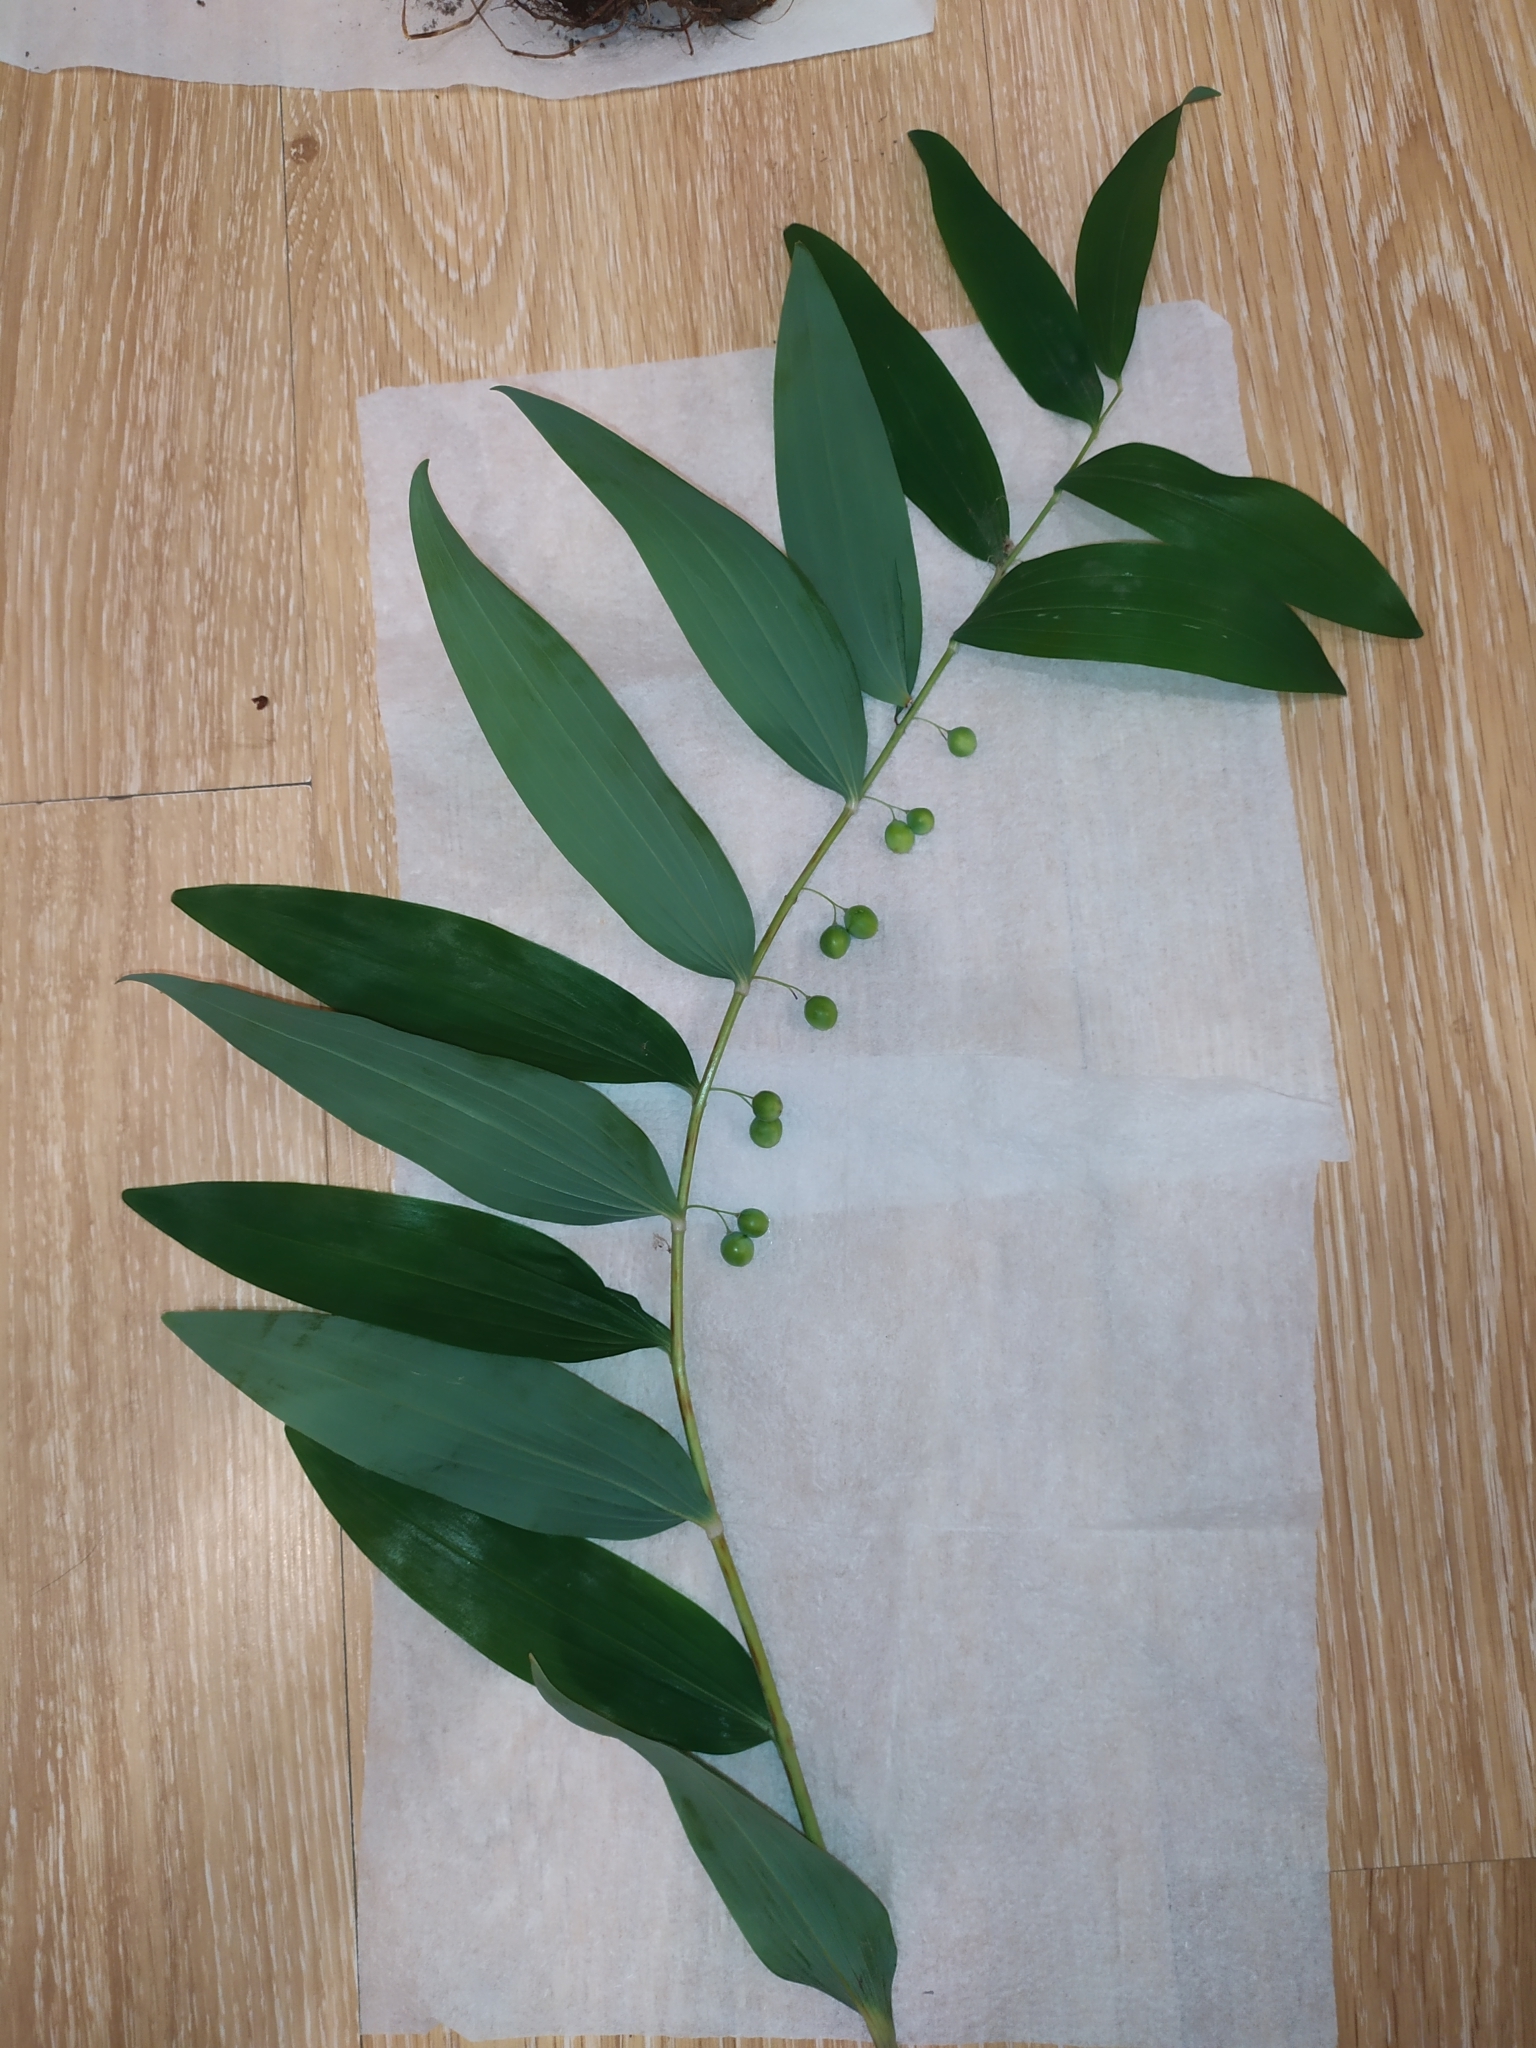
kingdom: Plantae
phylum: Tracheophyta
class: Liliopsida
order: Asparagales
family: Asparagaceae
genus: Polygonatum
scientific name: Polygonatum multiflorum
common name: Solomon's-seal
